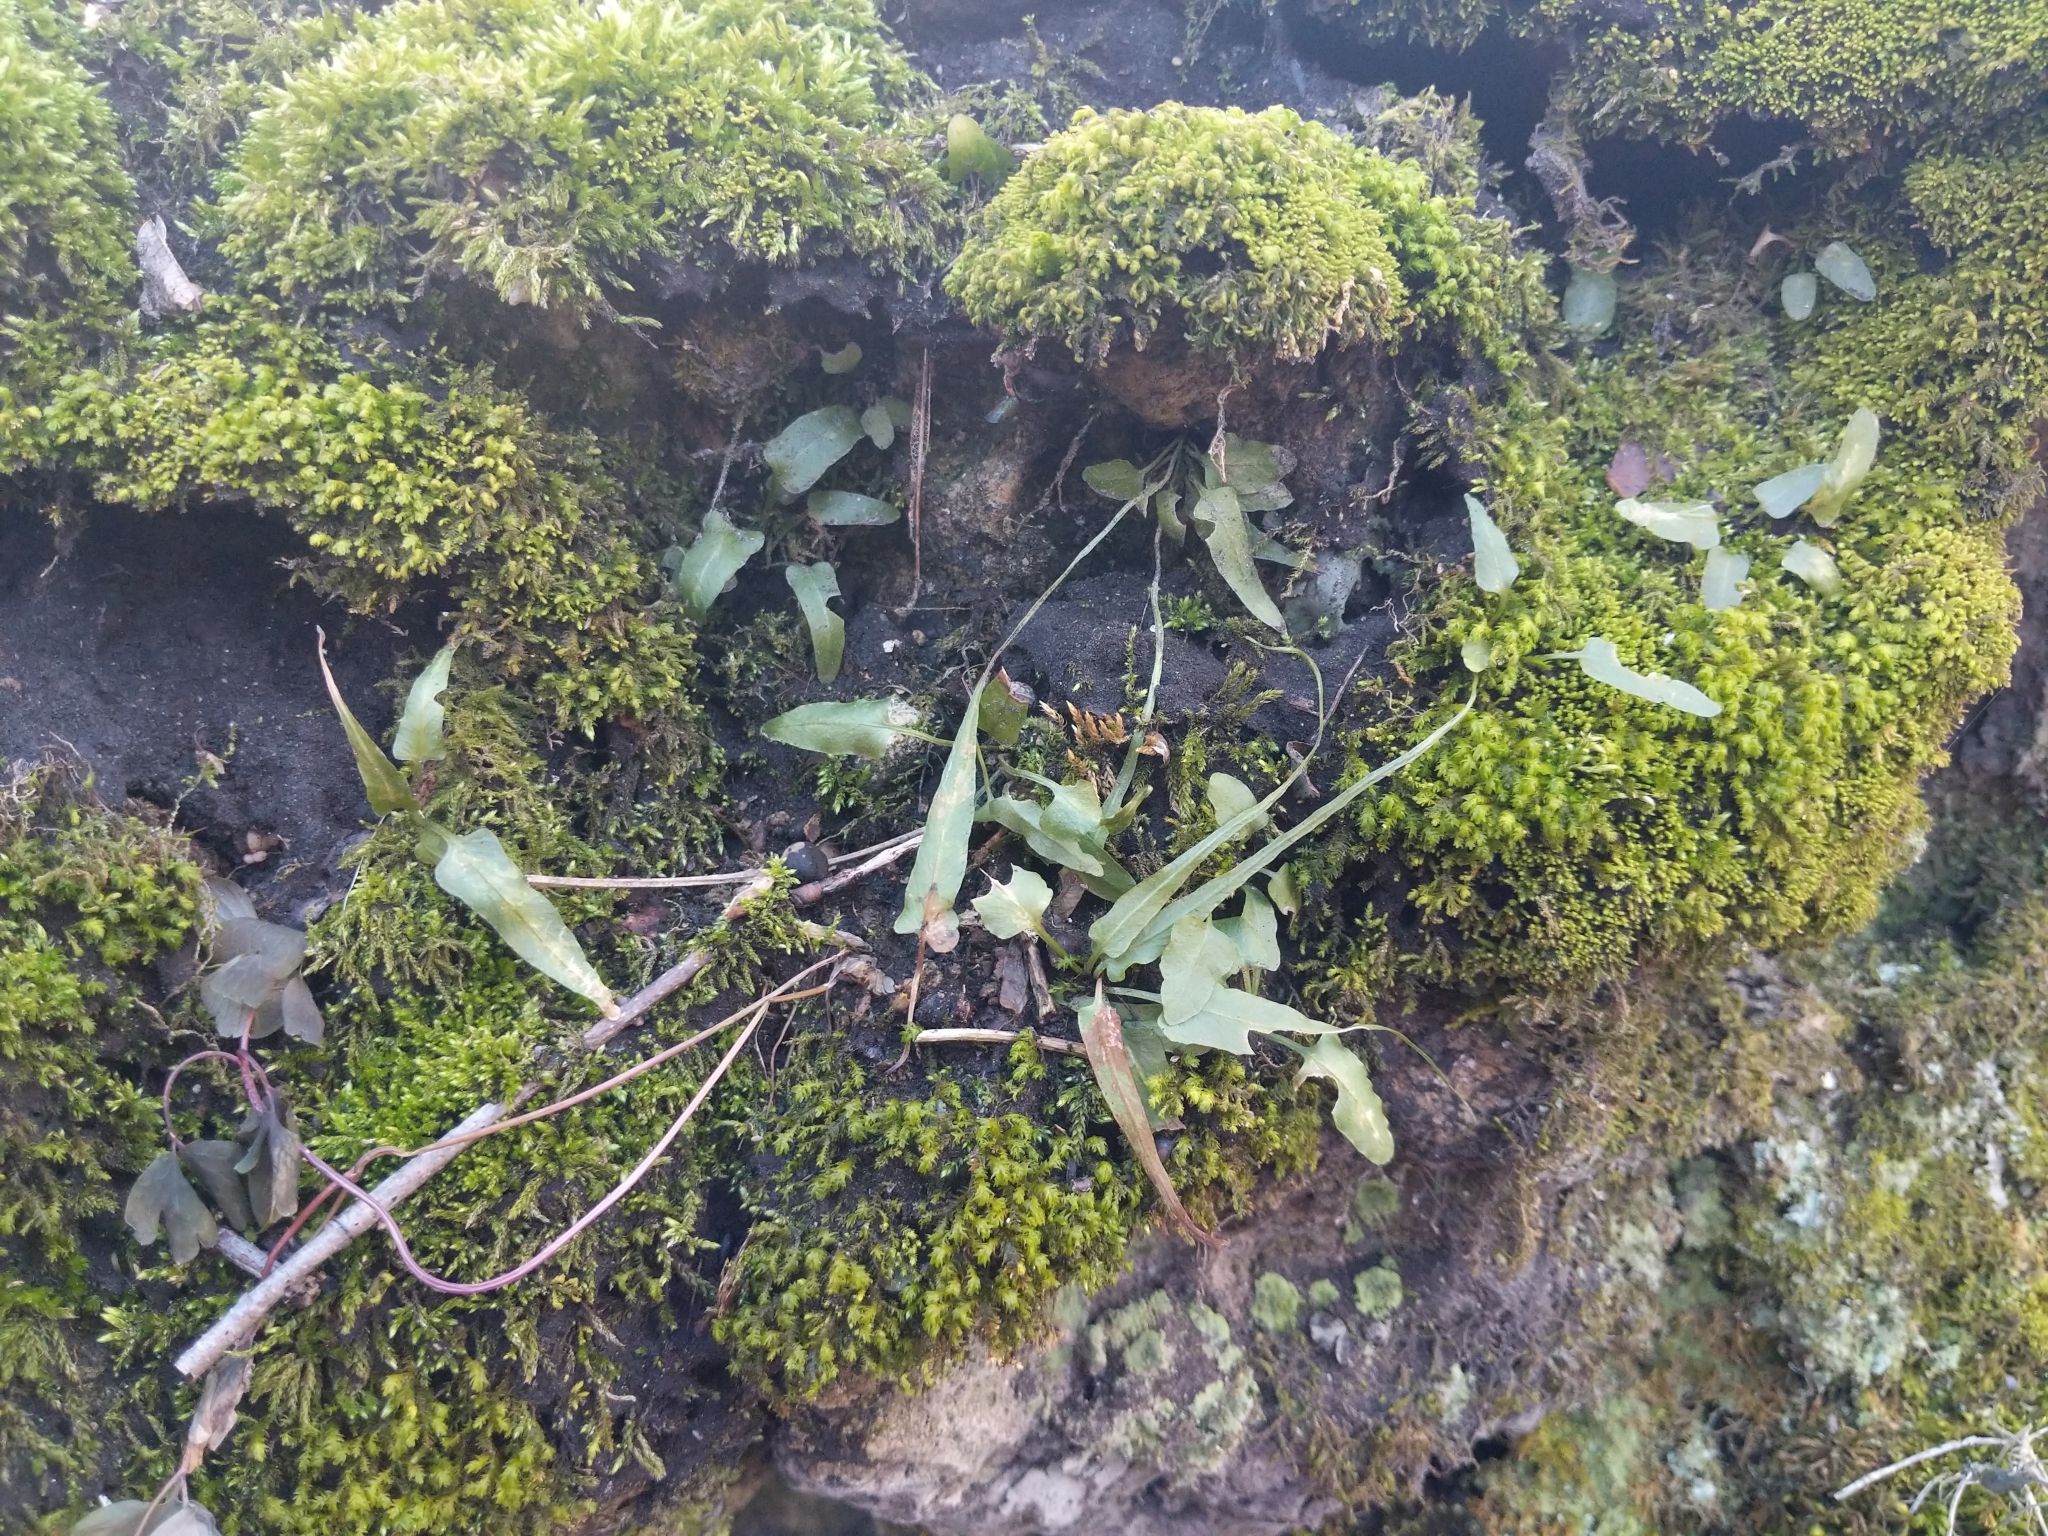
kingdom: Plantae
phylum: Tracheophyta
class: Polypodiopsida
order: Polypodiales
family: Aspleniaceae
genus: Asplenium
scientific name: Asplenium rhizophyllum
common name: Walking fern
